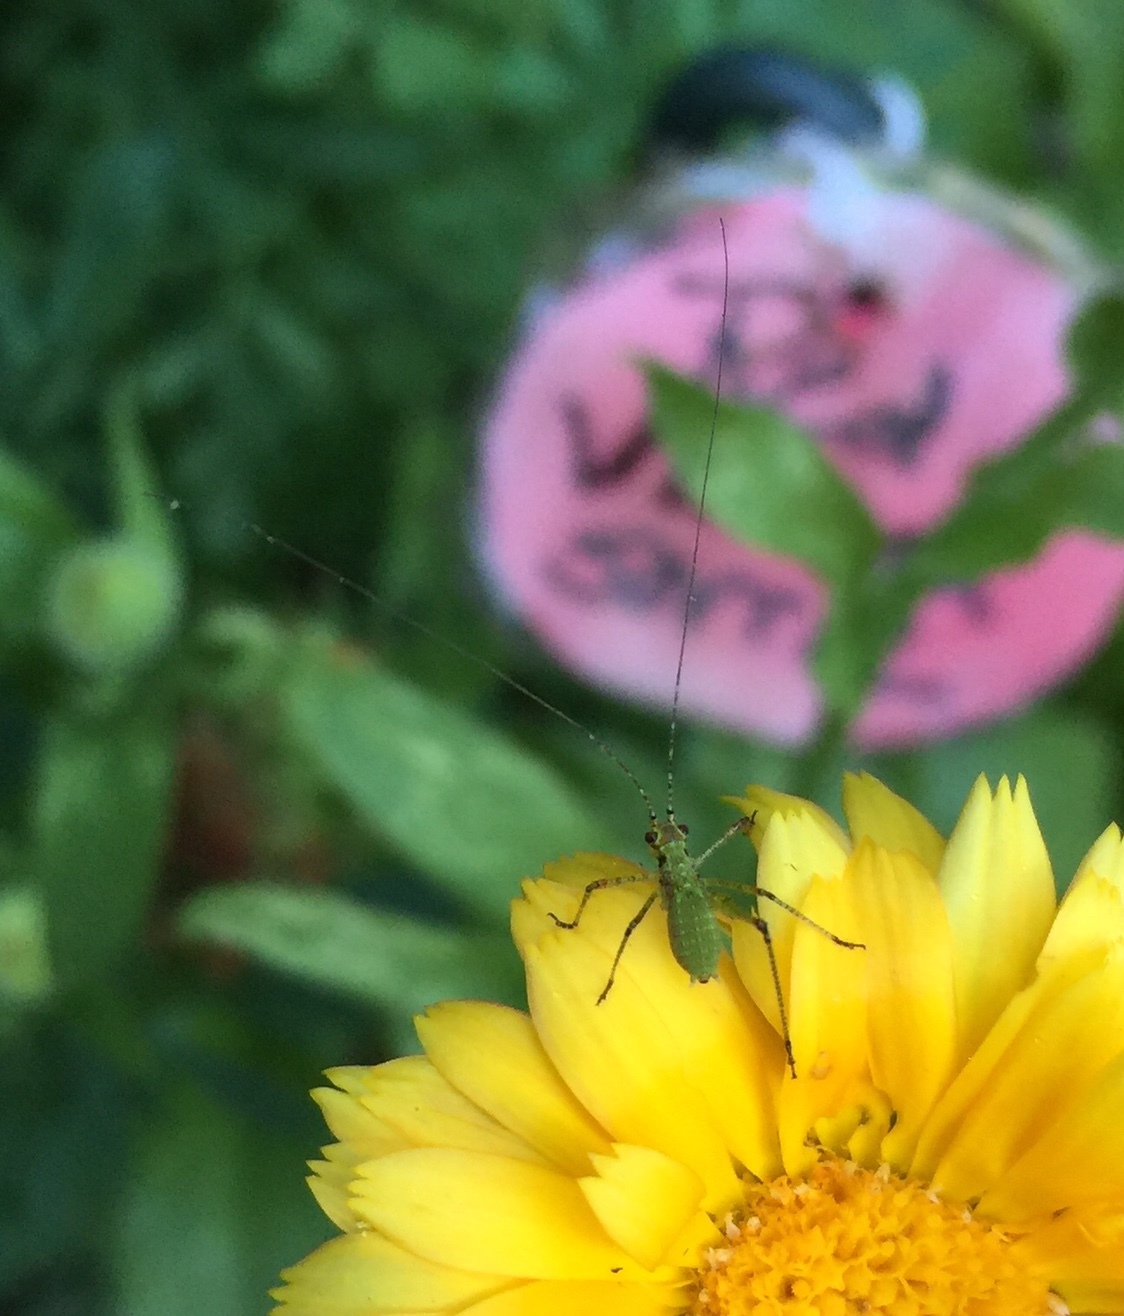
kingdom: Animalia
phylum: Arthropoda
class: Insecta
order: Orthoptera
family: Tettigoniidae
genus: Phaneroptera
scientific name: Phaneroptera nana
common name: Southern sickle bush-cricket
